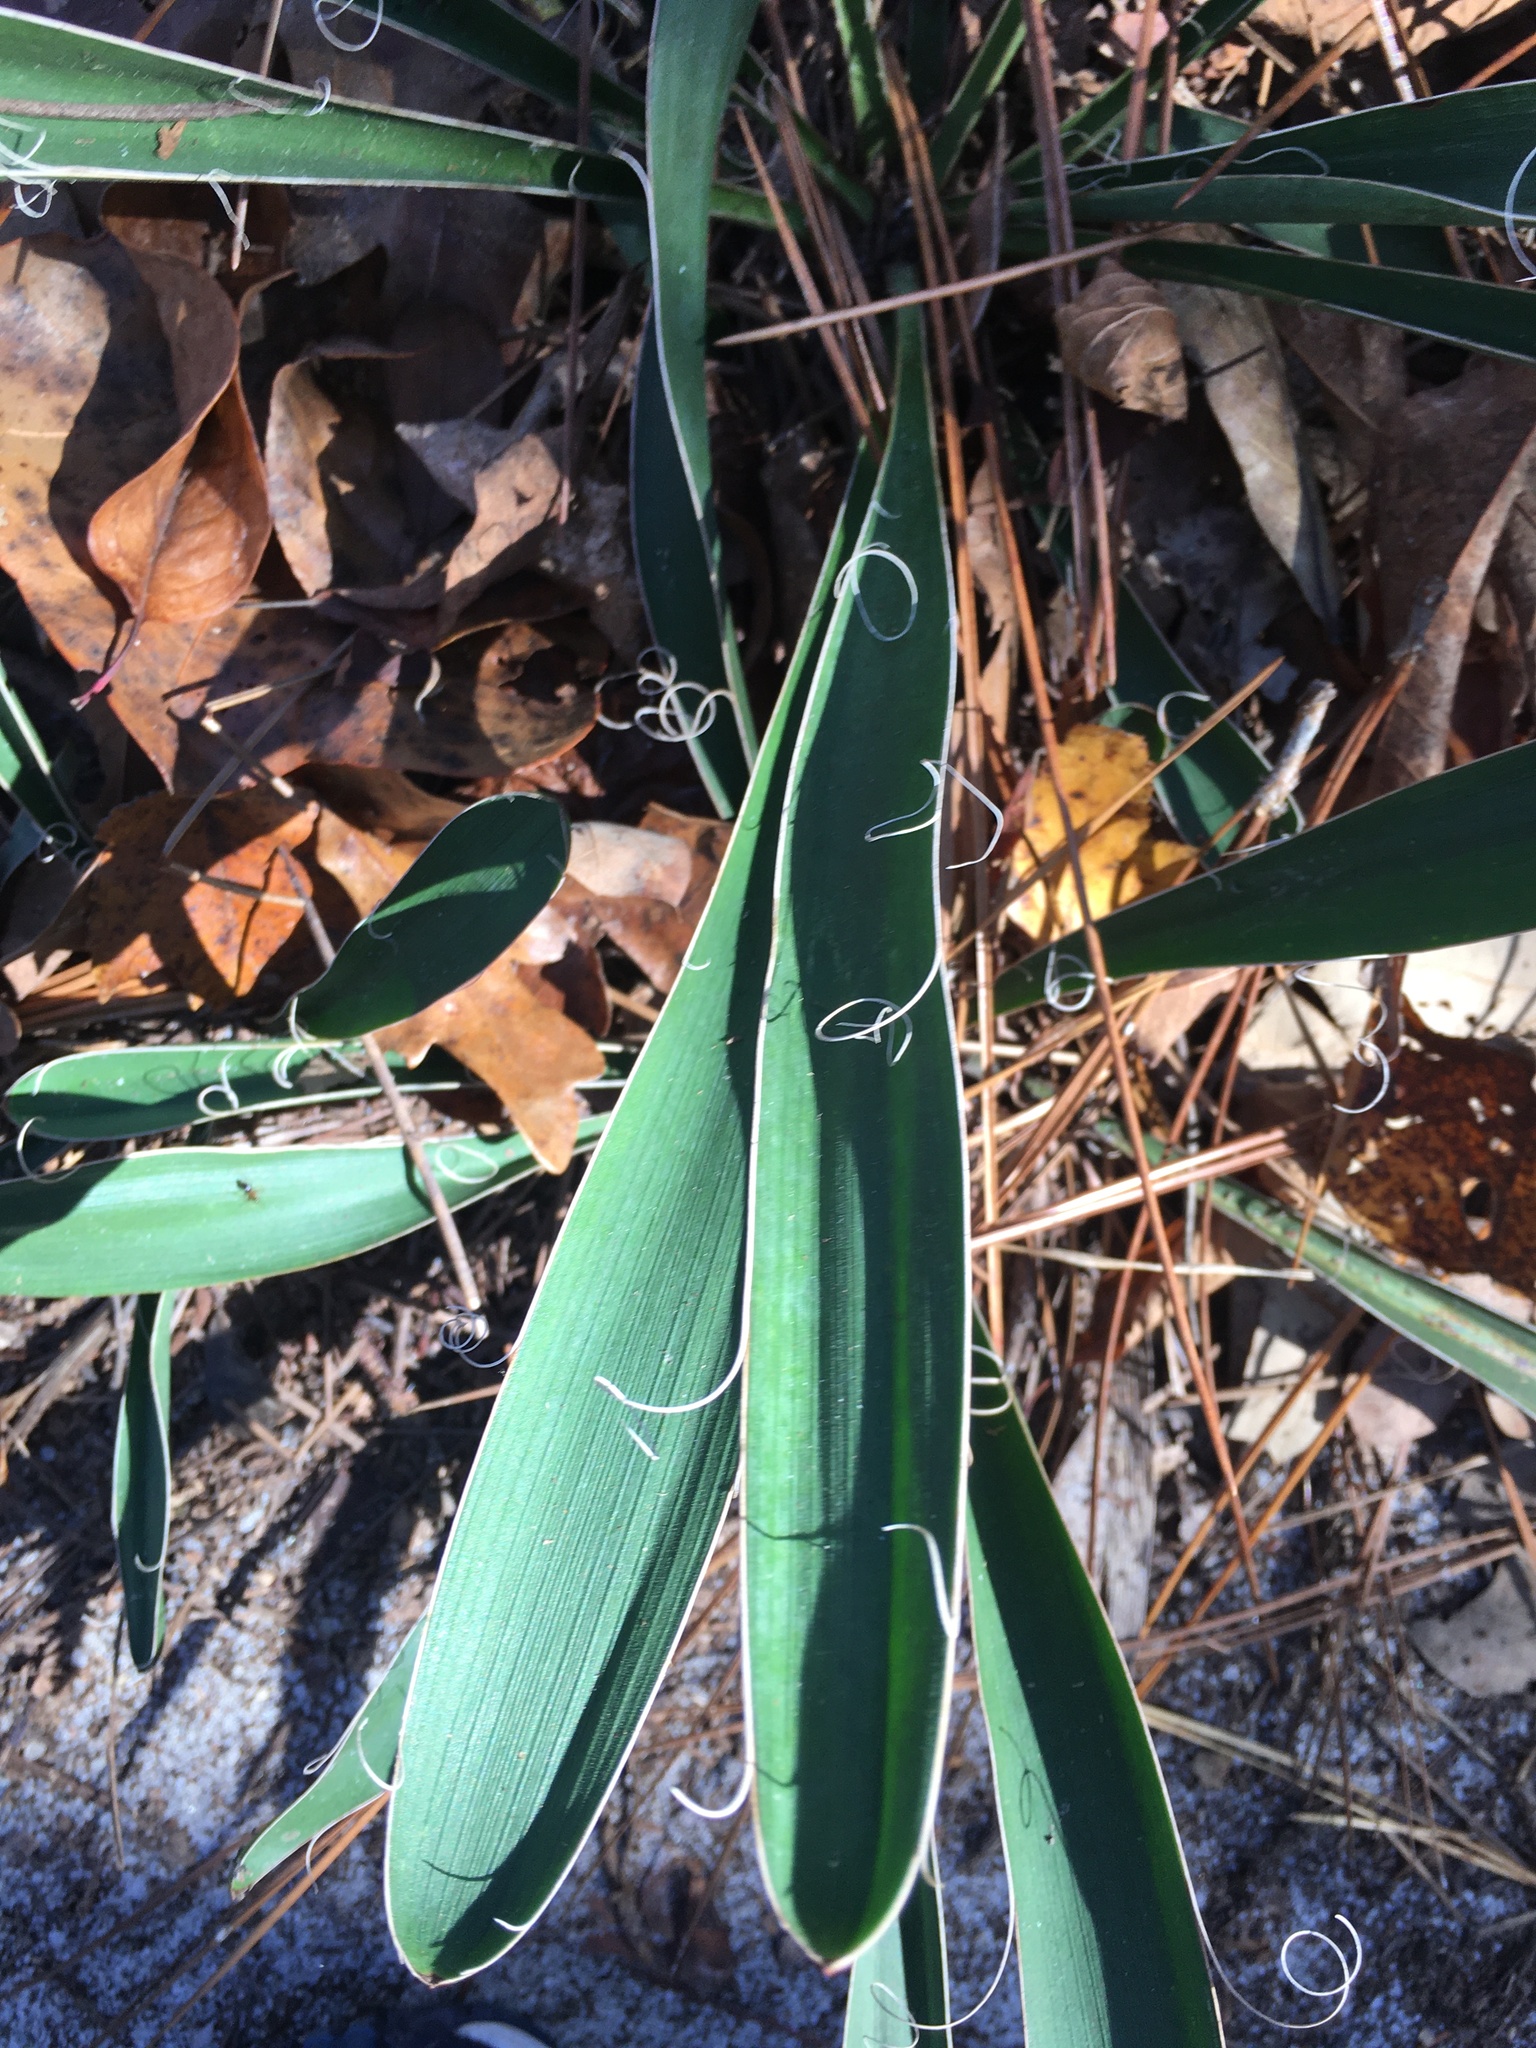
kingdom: Plantae
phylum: Tracheophyta
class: Liliopsida
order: Asparagales
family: Asparagaceae
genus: Yucca
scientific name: Yucca filamentosa
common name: Adam's-needle
